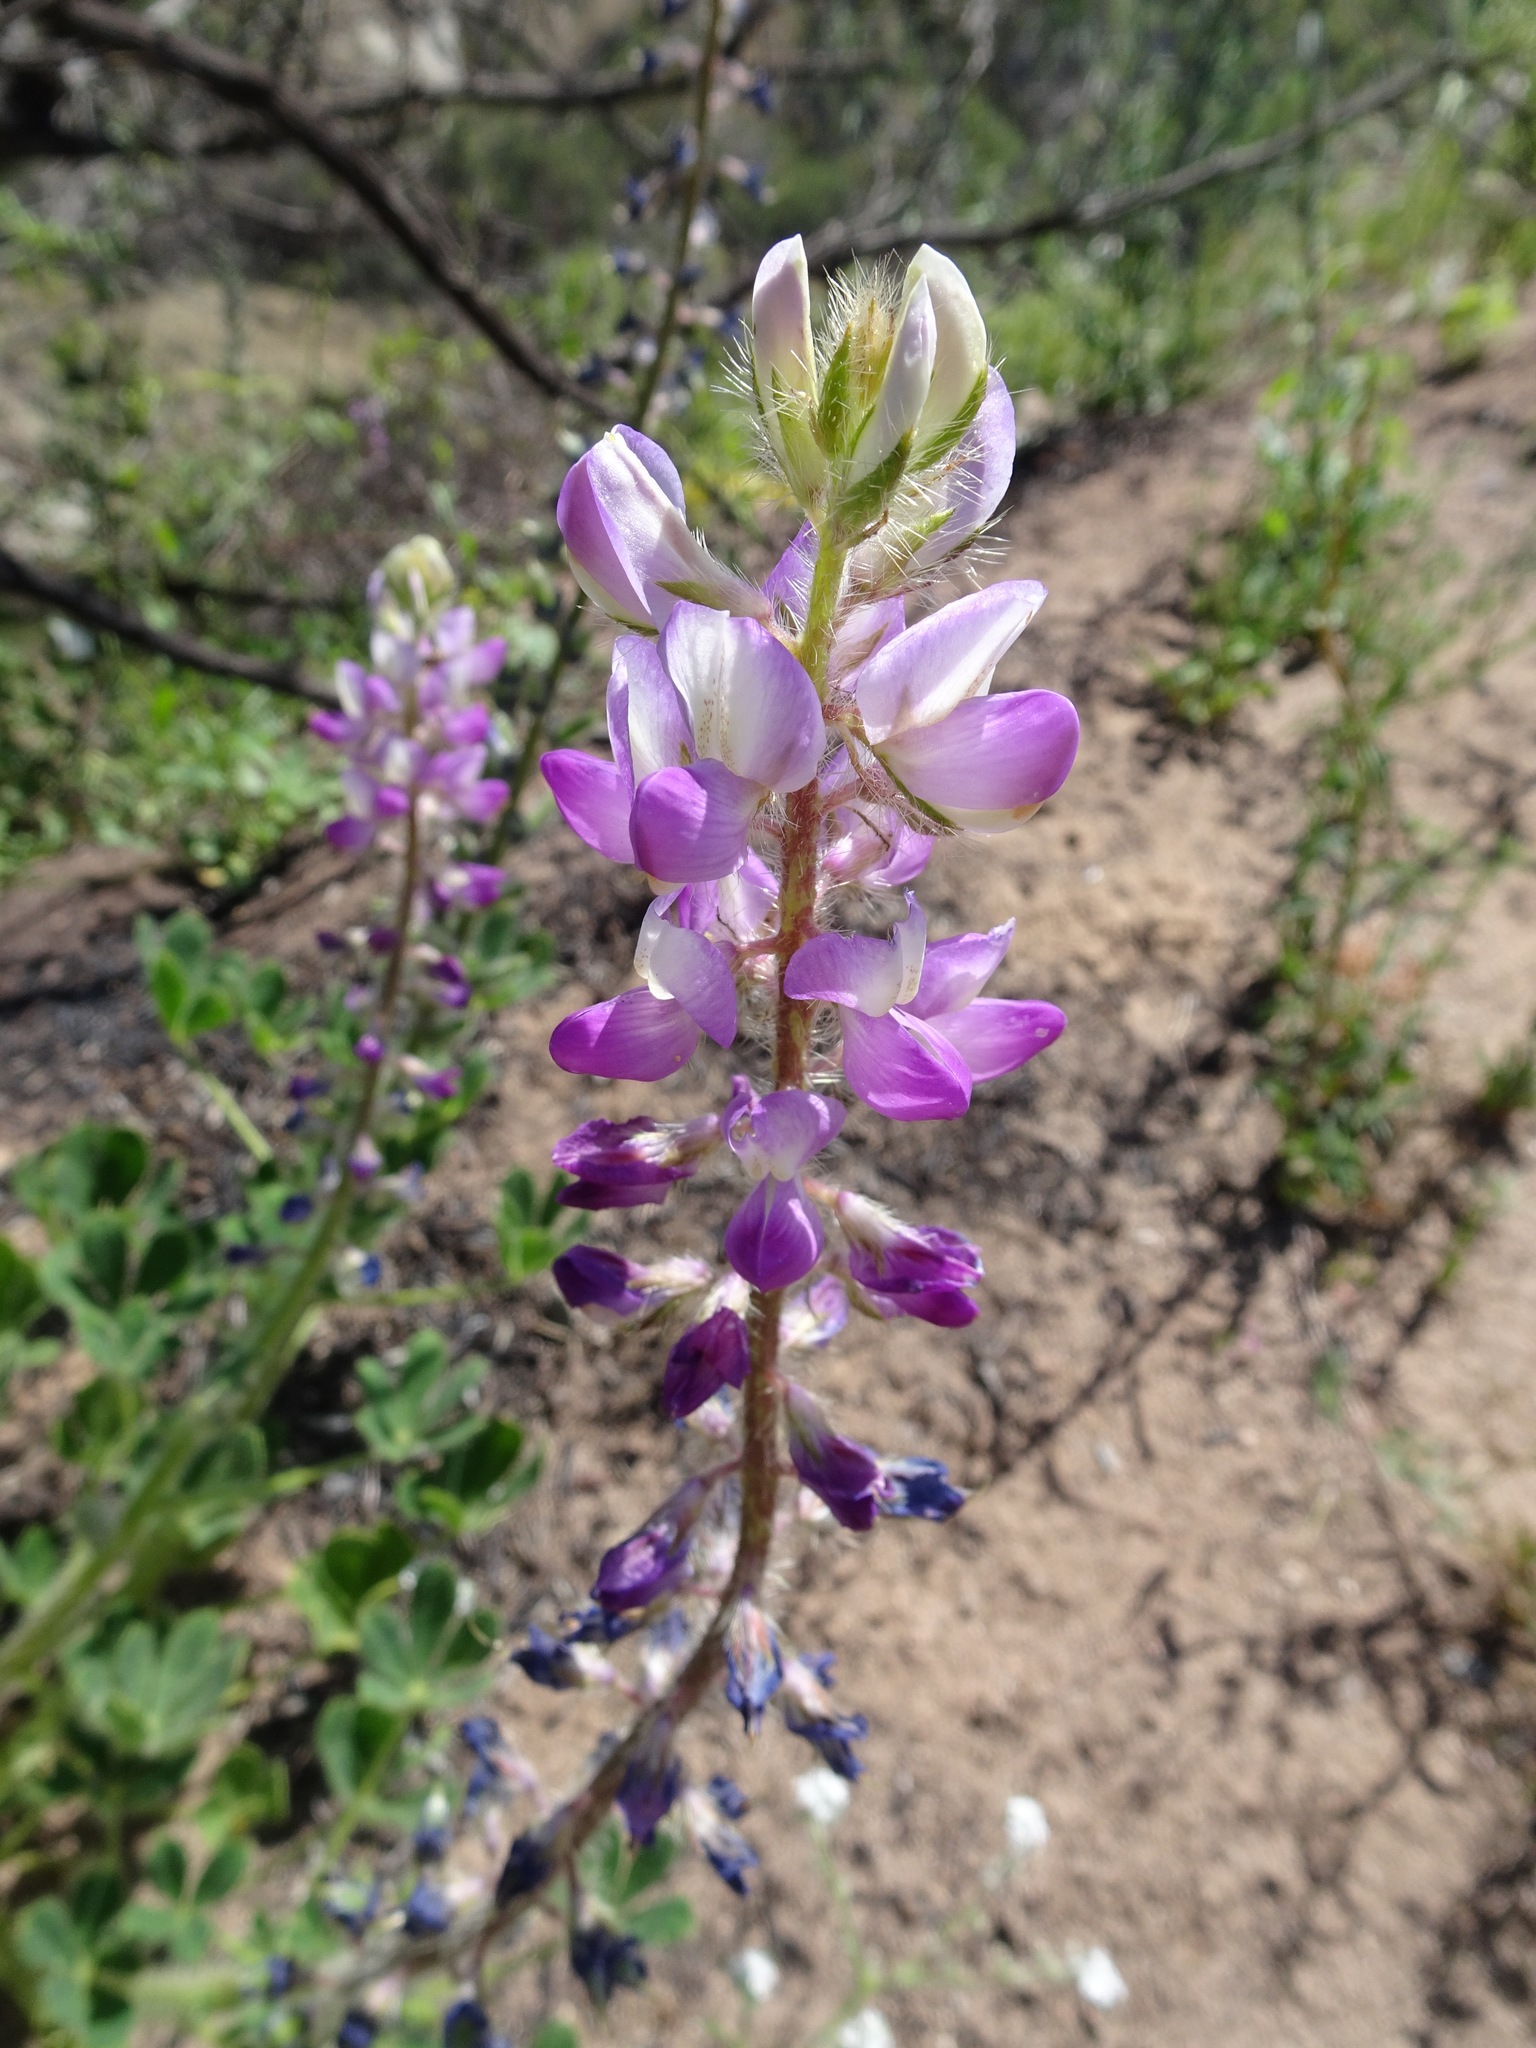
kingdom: Plantae
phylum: Tracheophyta
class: Magnoliopsida
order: Fabales
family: Fabaceae
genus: Lupinus
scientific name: Lupinus hirsutissimus
